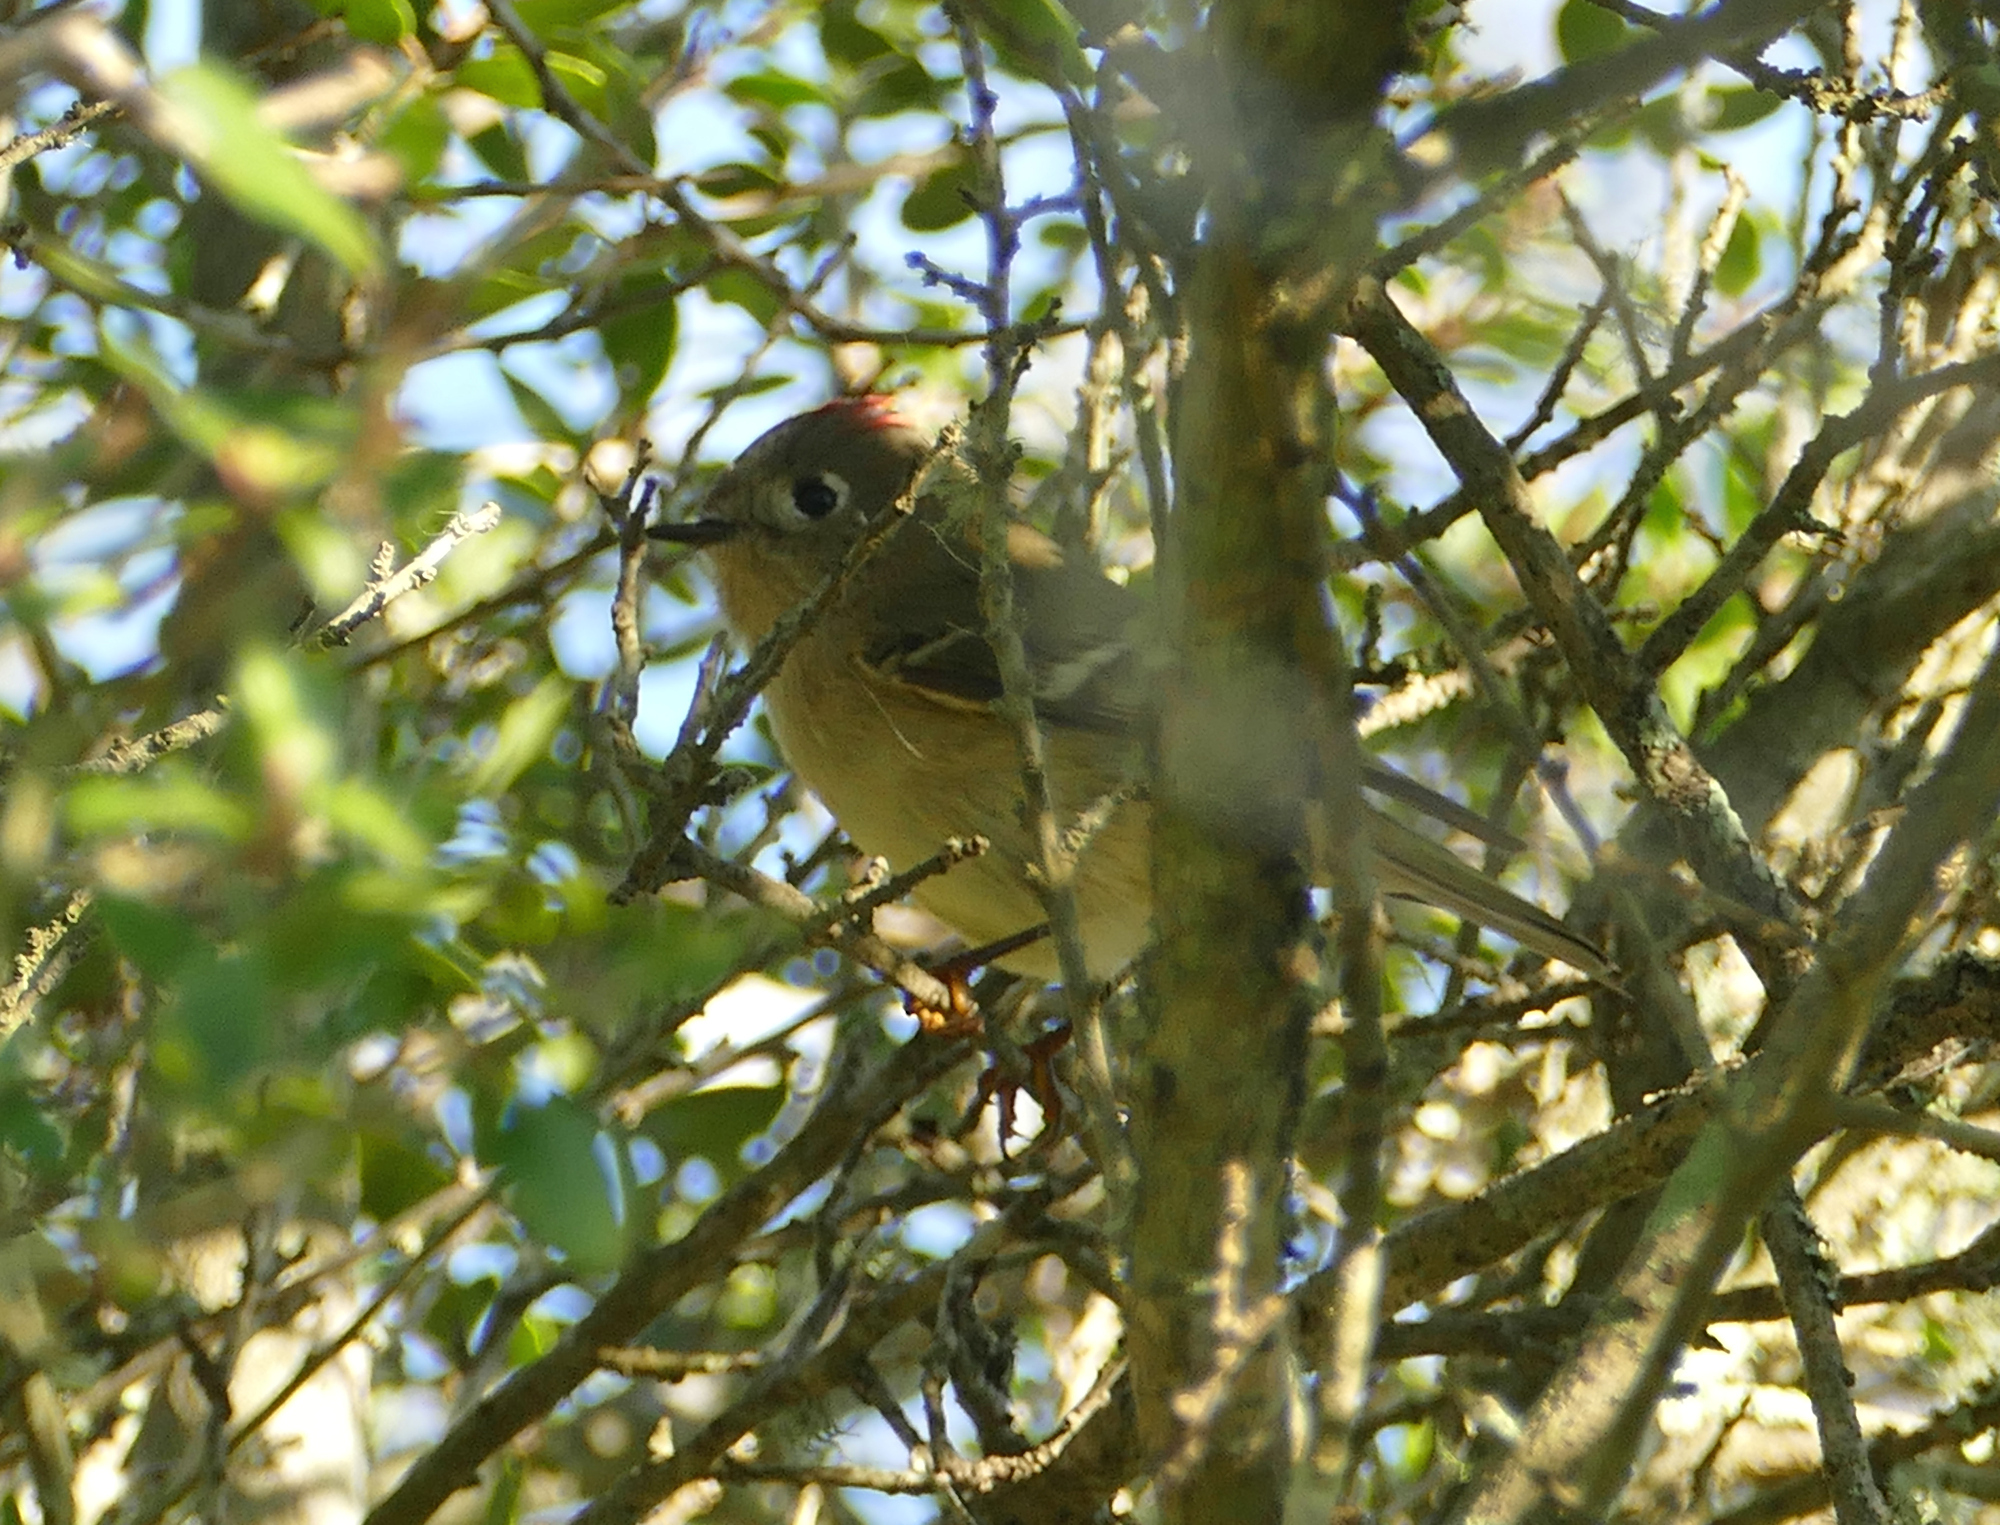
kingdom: Animalia
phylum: Chordata
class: Aves
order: Passeriformes
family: Regulidae
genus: Regulus
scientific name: Regulus calendula
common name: Ruby-crowned kinglet
